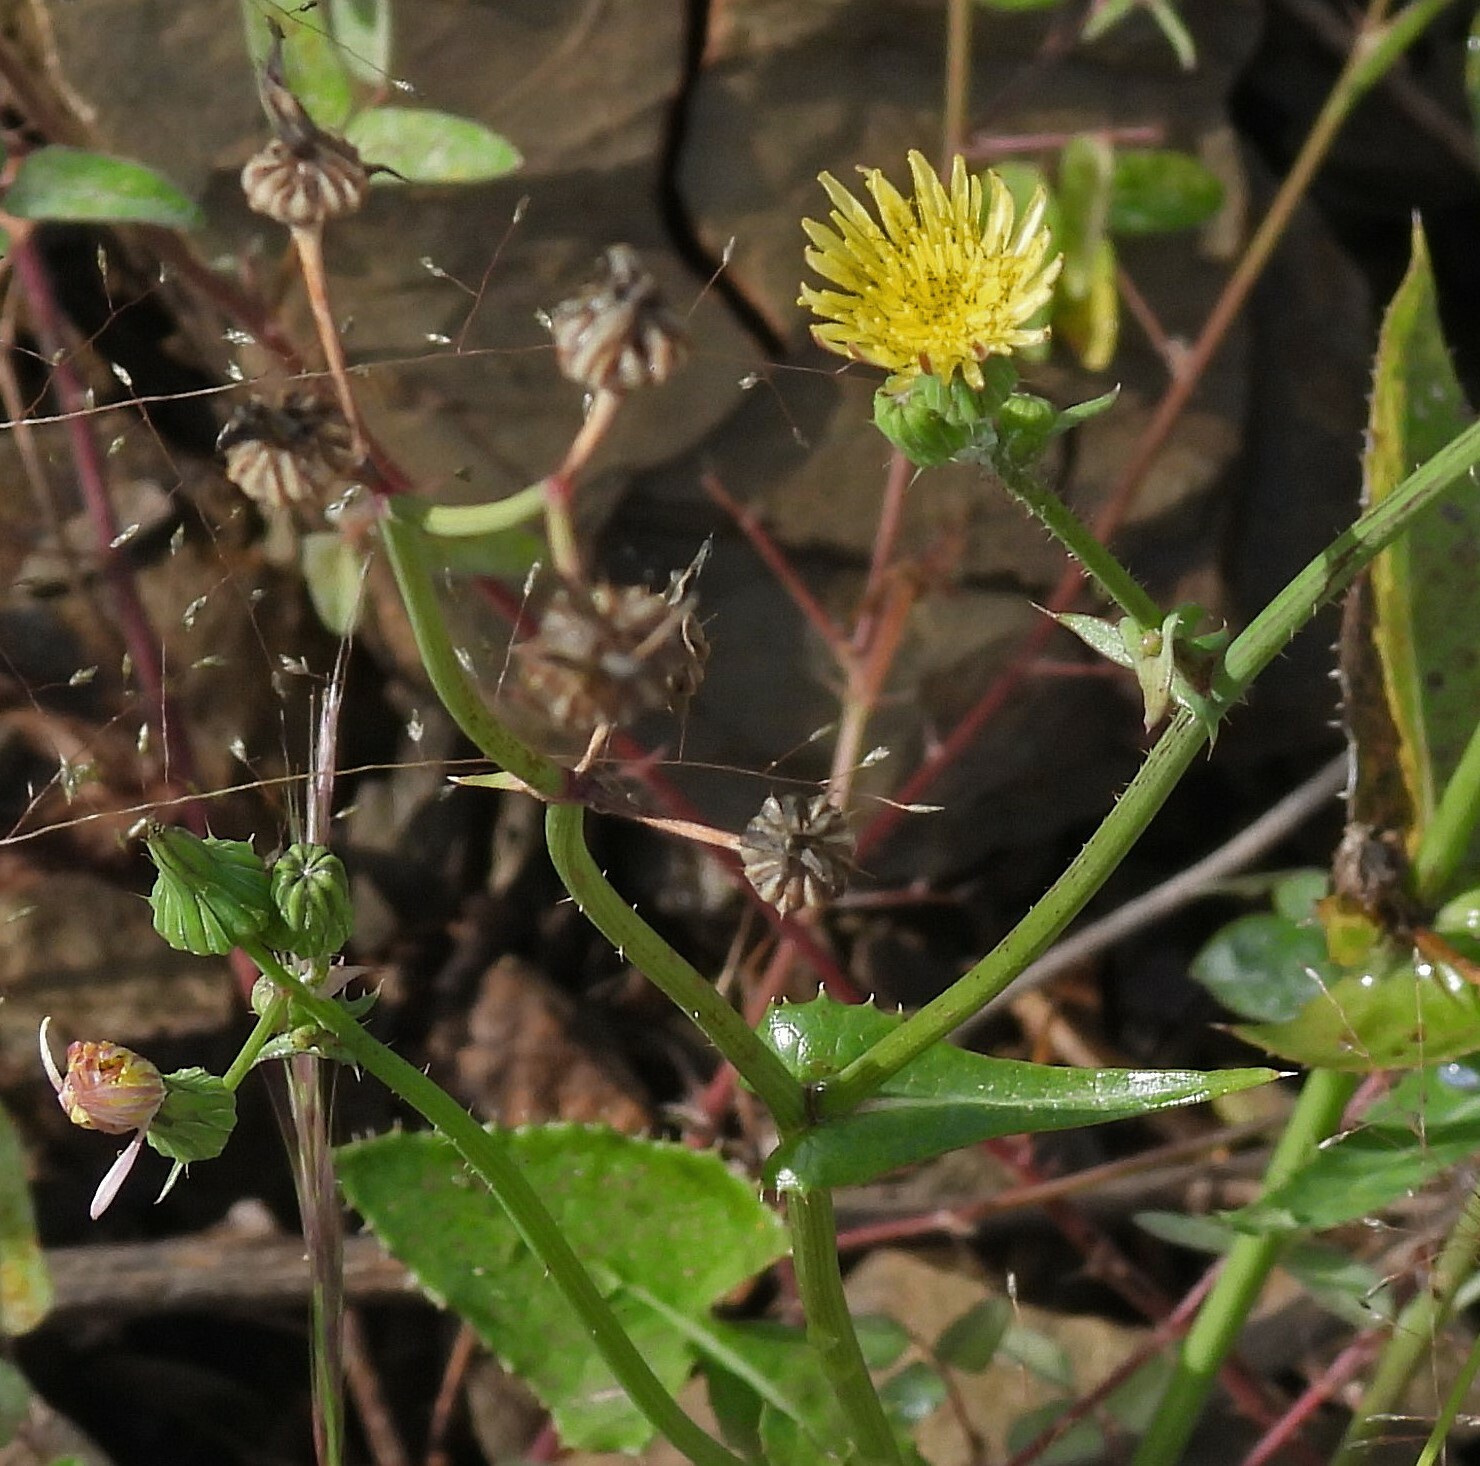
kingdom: Plantae
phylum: Tracheophyta
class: Magnoliopsida
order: Asterales
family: Asteraceae
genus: Sonchus
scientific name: Sonchus oleraceus
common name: Common sowthistle
